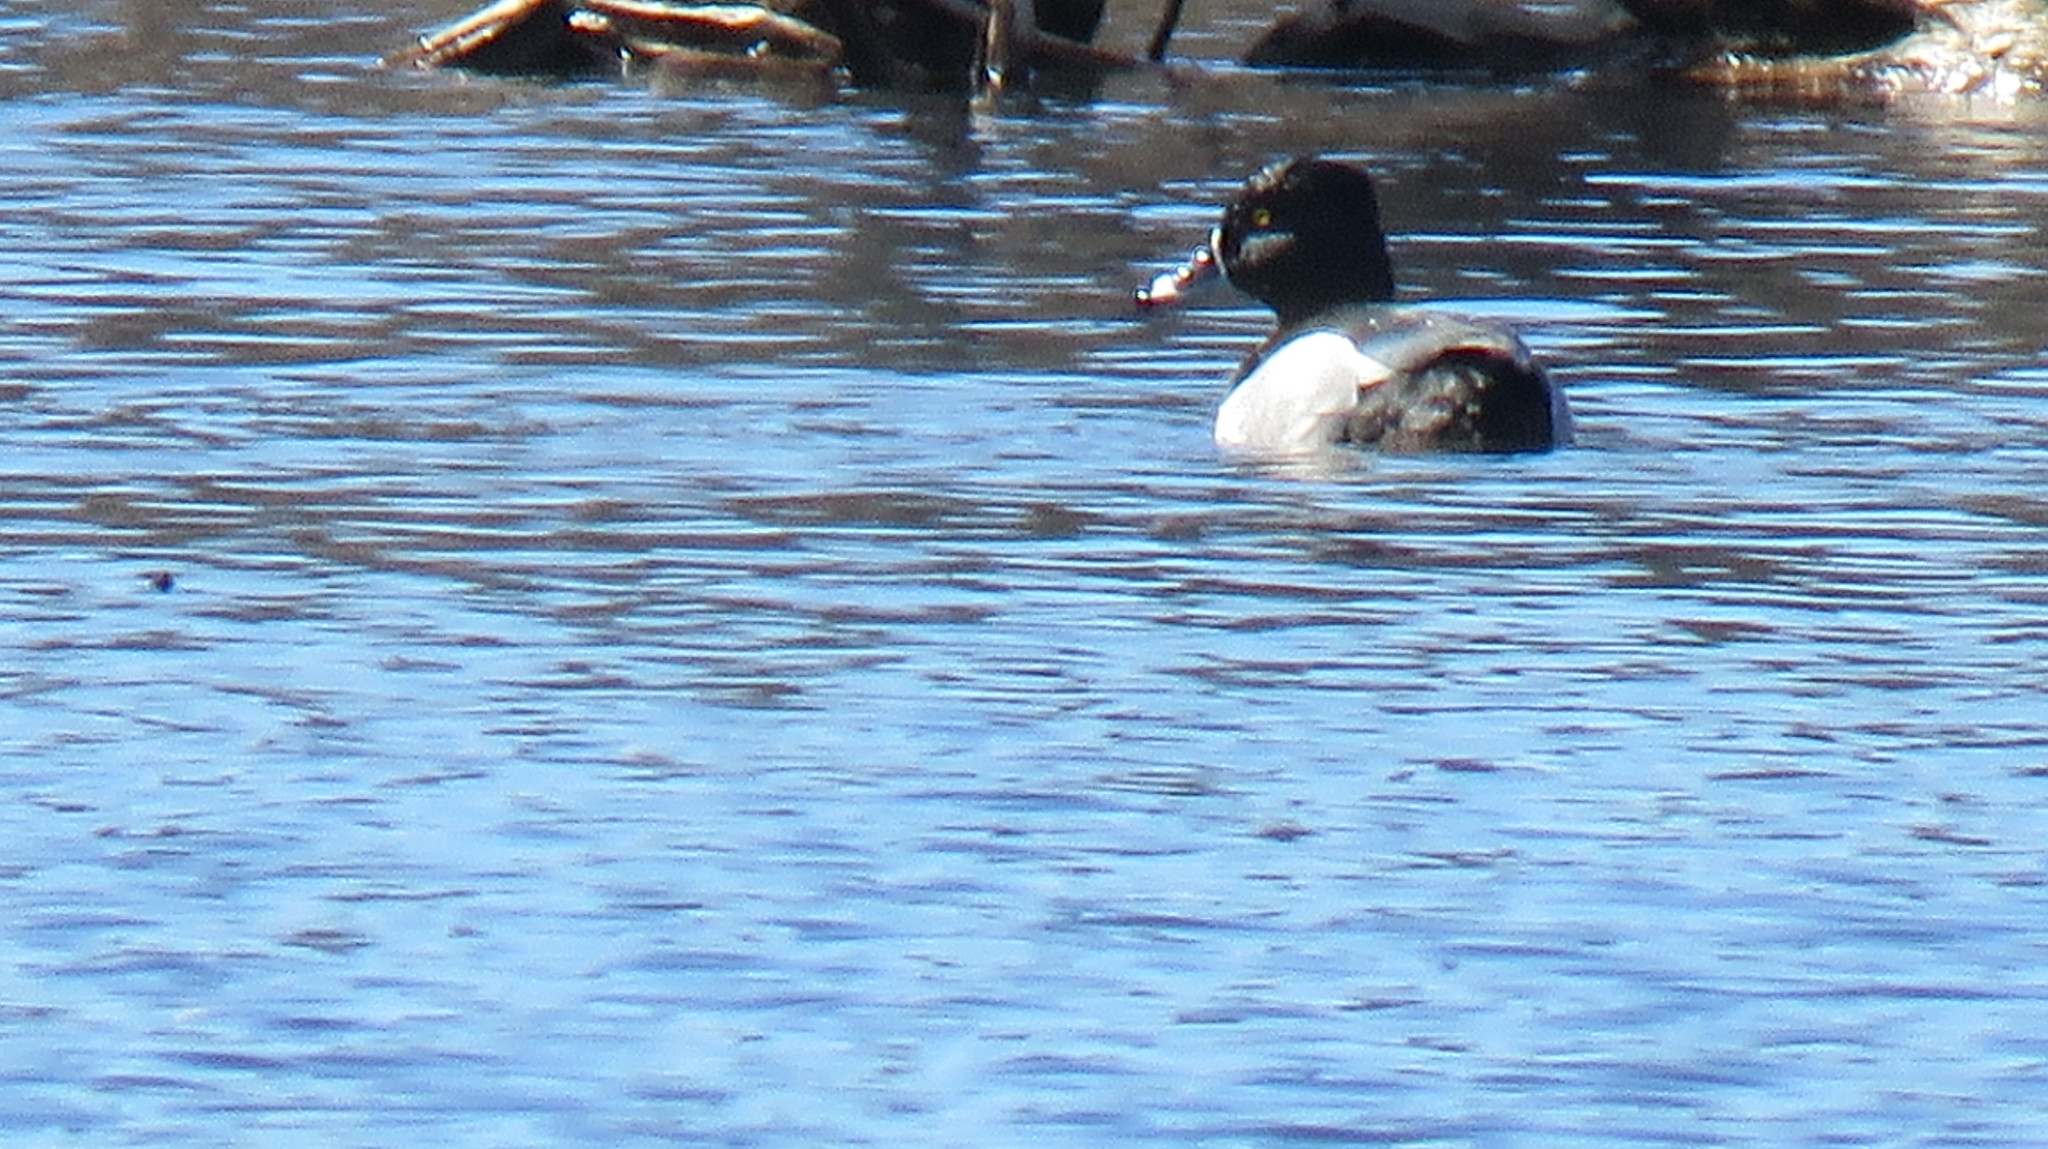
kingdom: Animalia
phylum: Chordata
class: Aves
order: Anseriformes
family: Anatidae
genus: Aythya
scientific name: Aythya collaris
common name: Ring-necked duck
